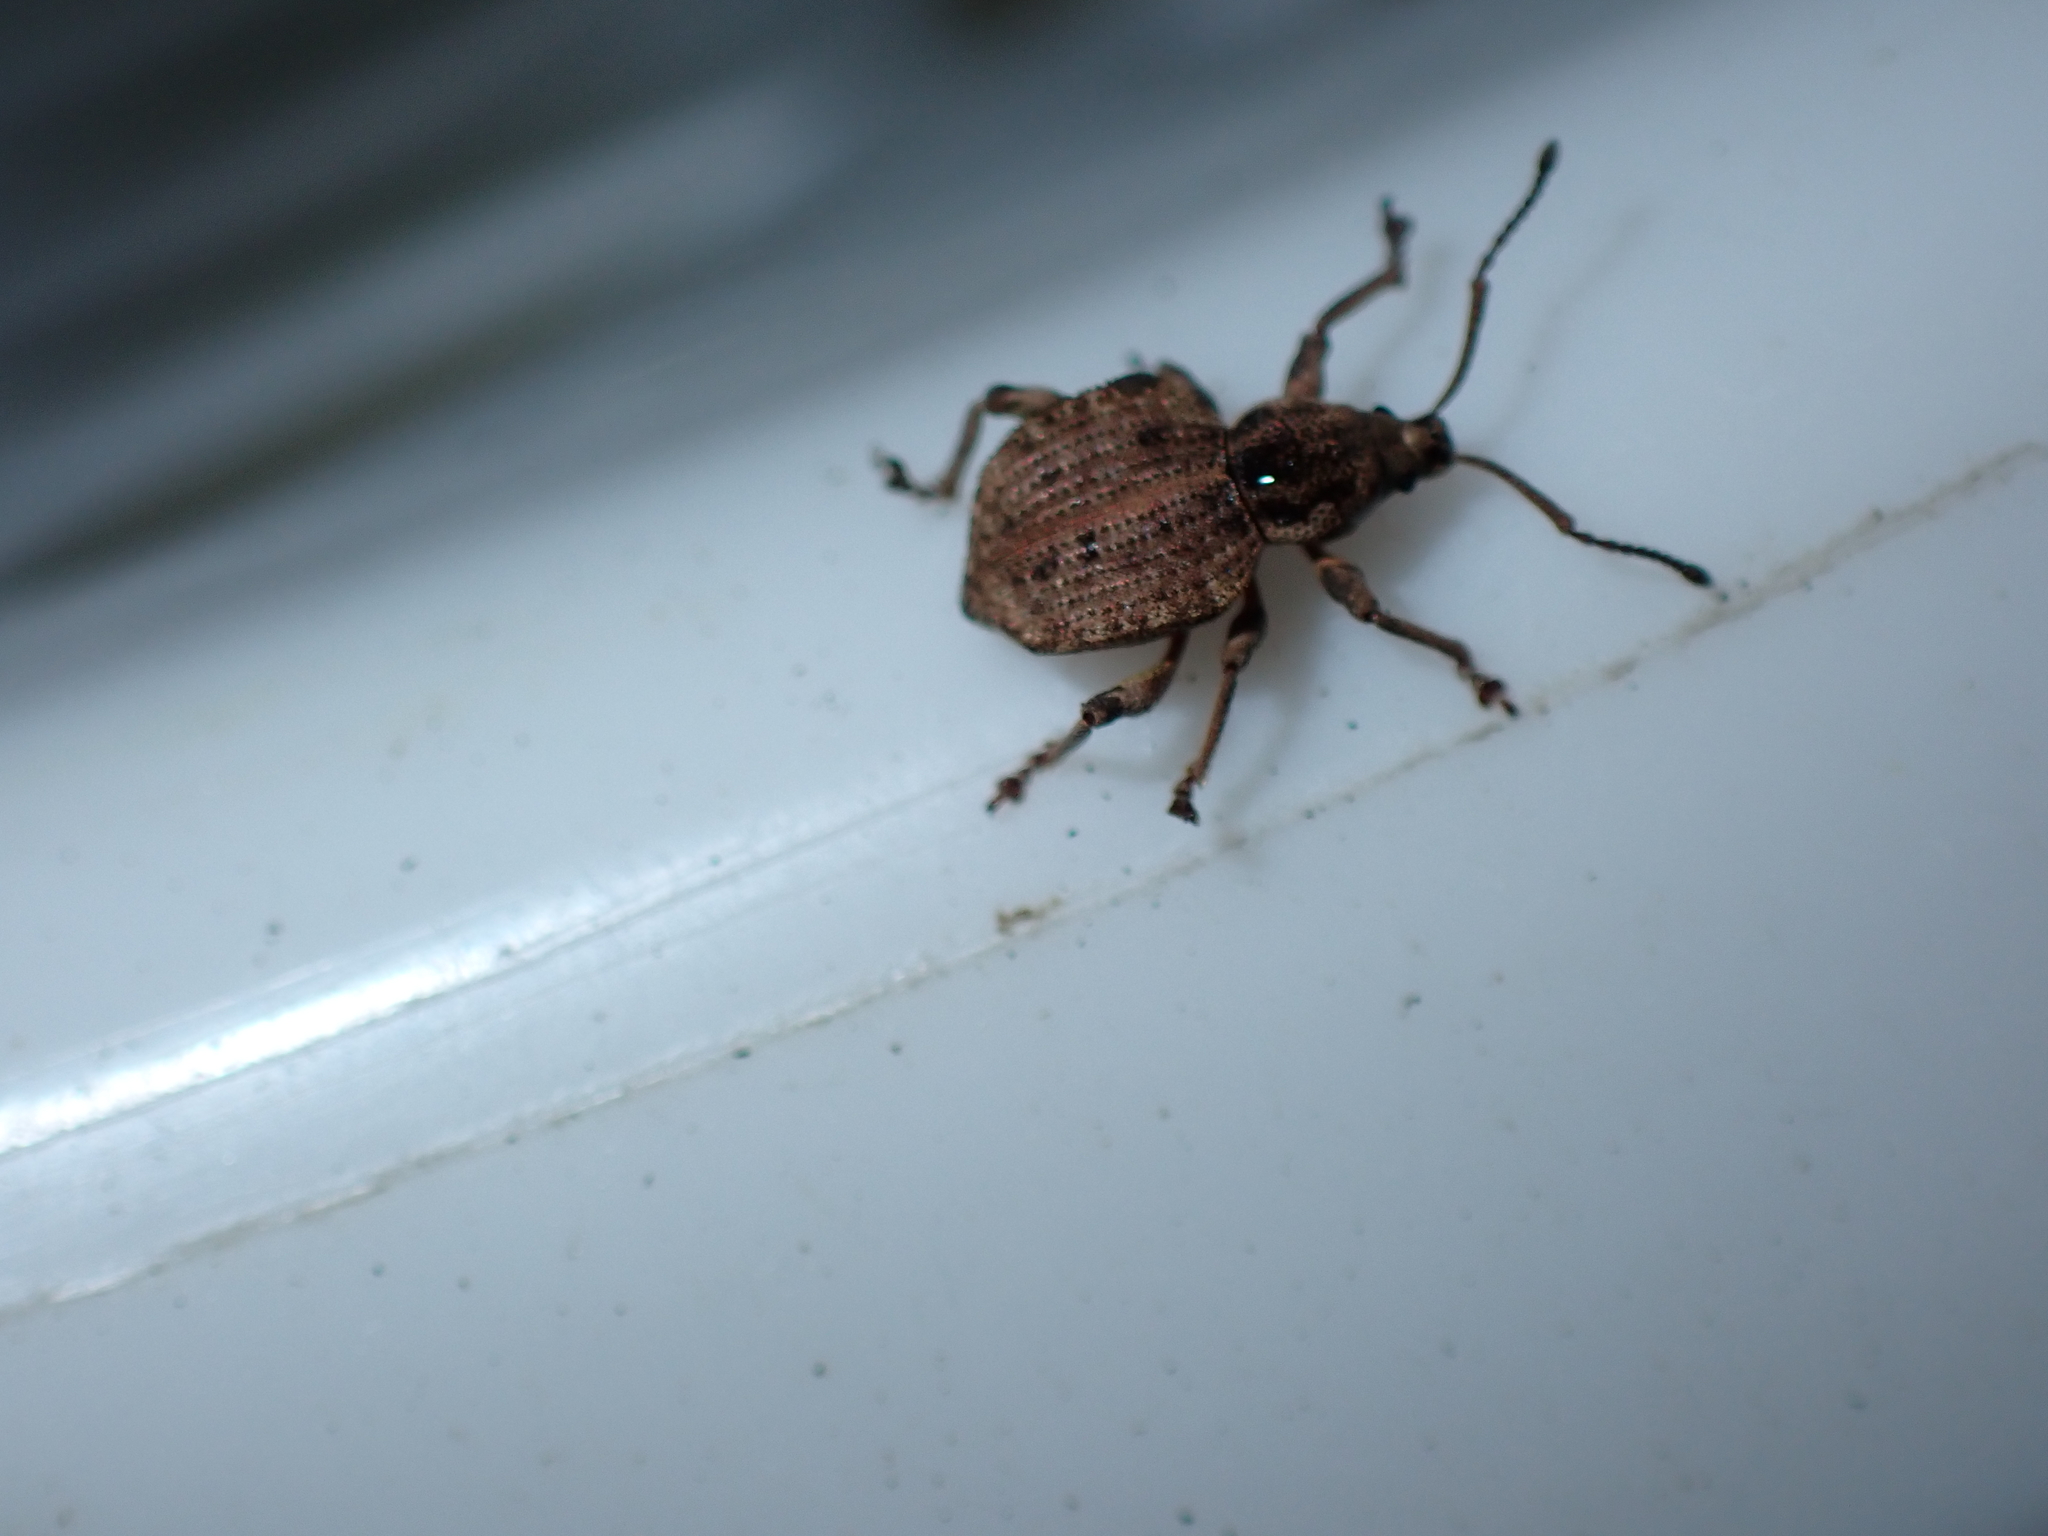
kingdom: Animalia
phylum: Arthropoda
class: Insecta
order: Coleoptera
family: Curculionidae
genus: Platysimus
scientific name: Platysimus septentrionalis
